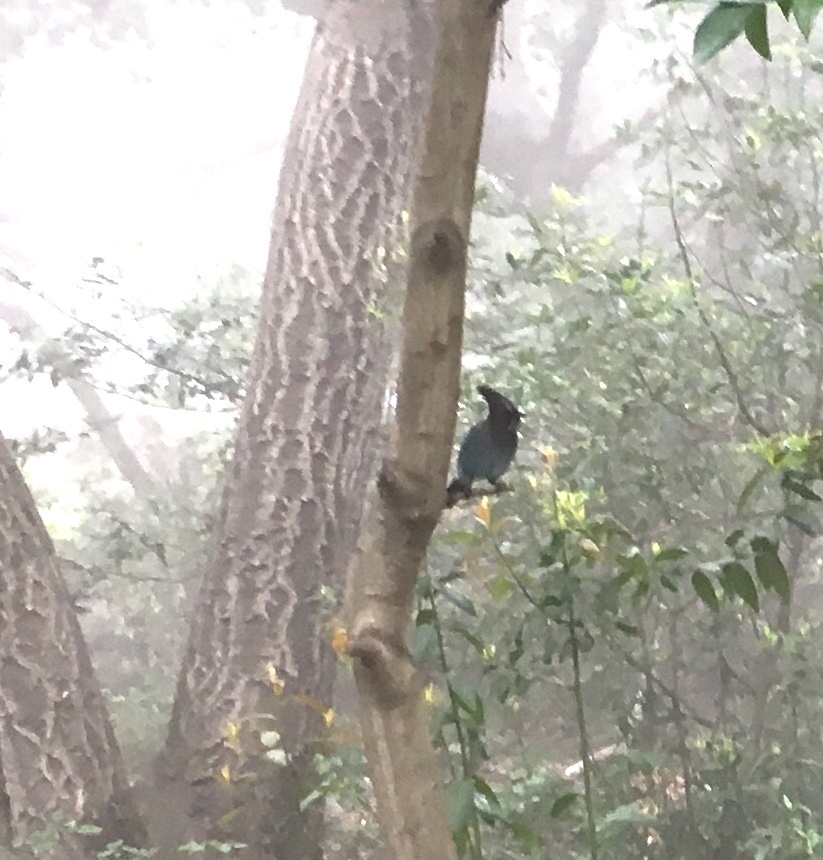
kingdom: Animalia
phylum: Chordata
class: Aves
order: Passeriformes
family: Corvidae
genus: Cyanocitta
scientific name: Cyanocitta stelleri
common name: Steller's jay
